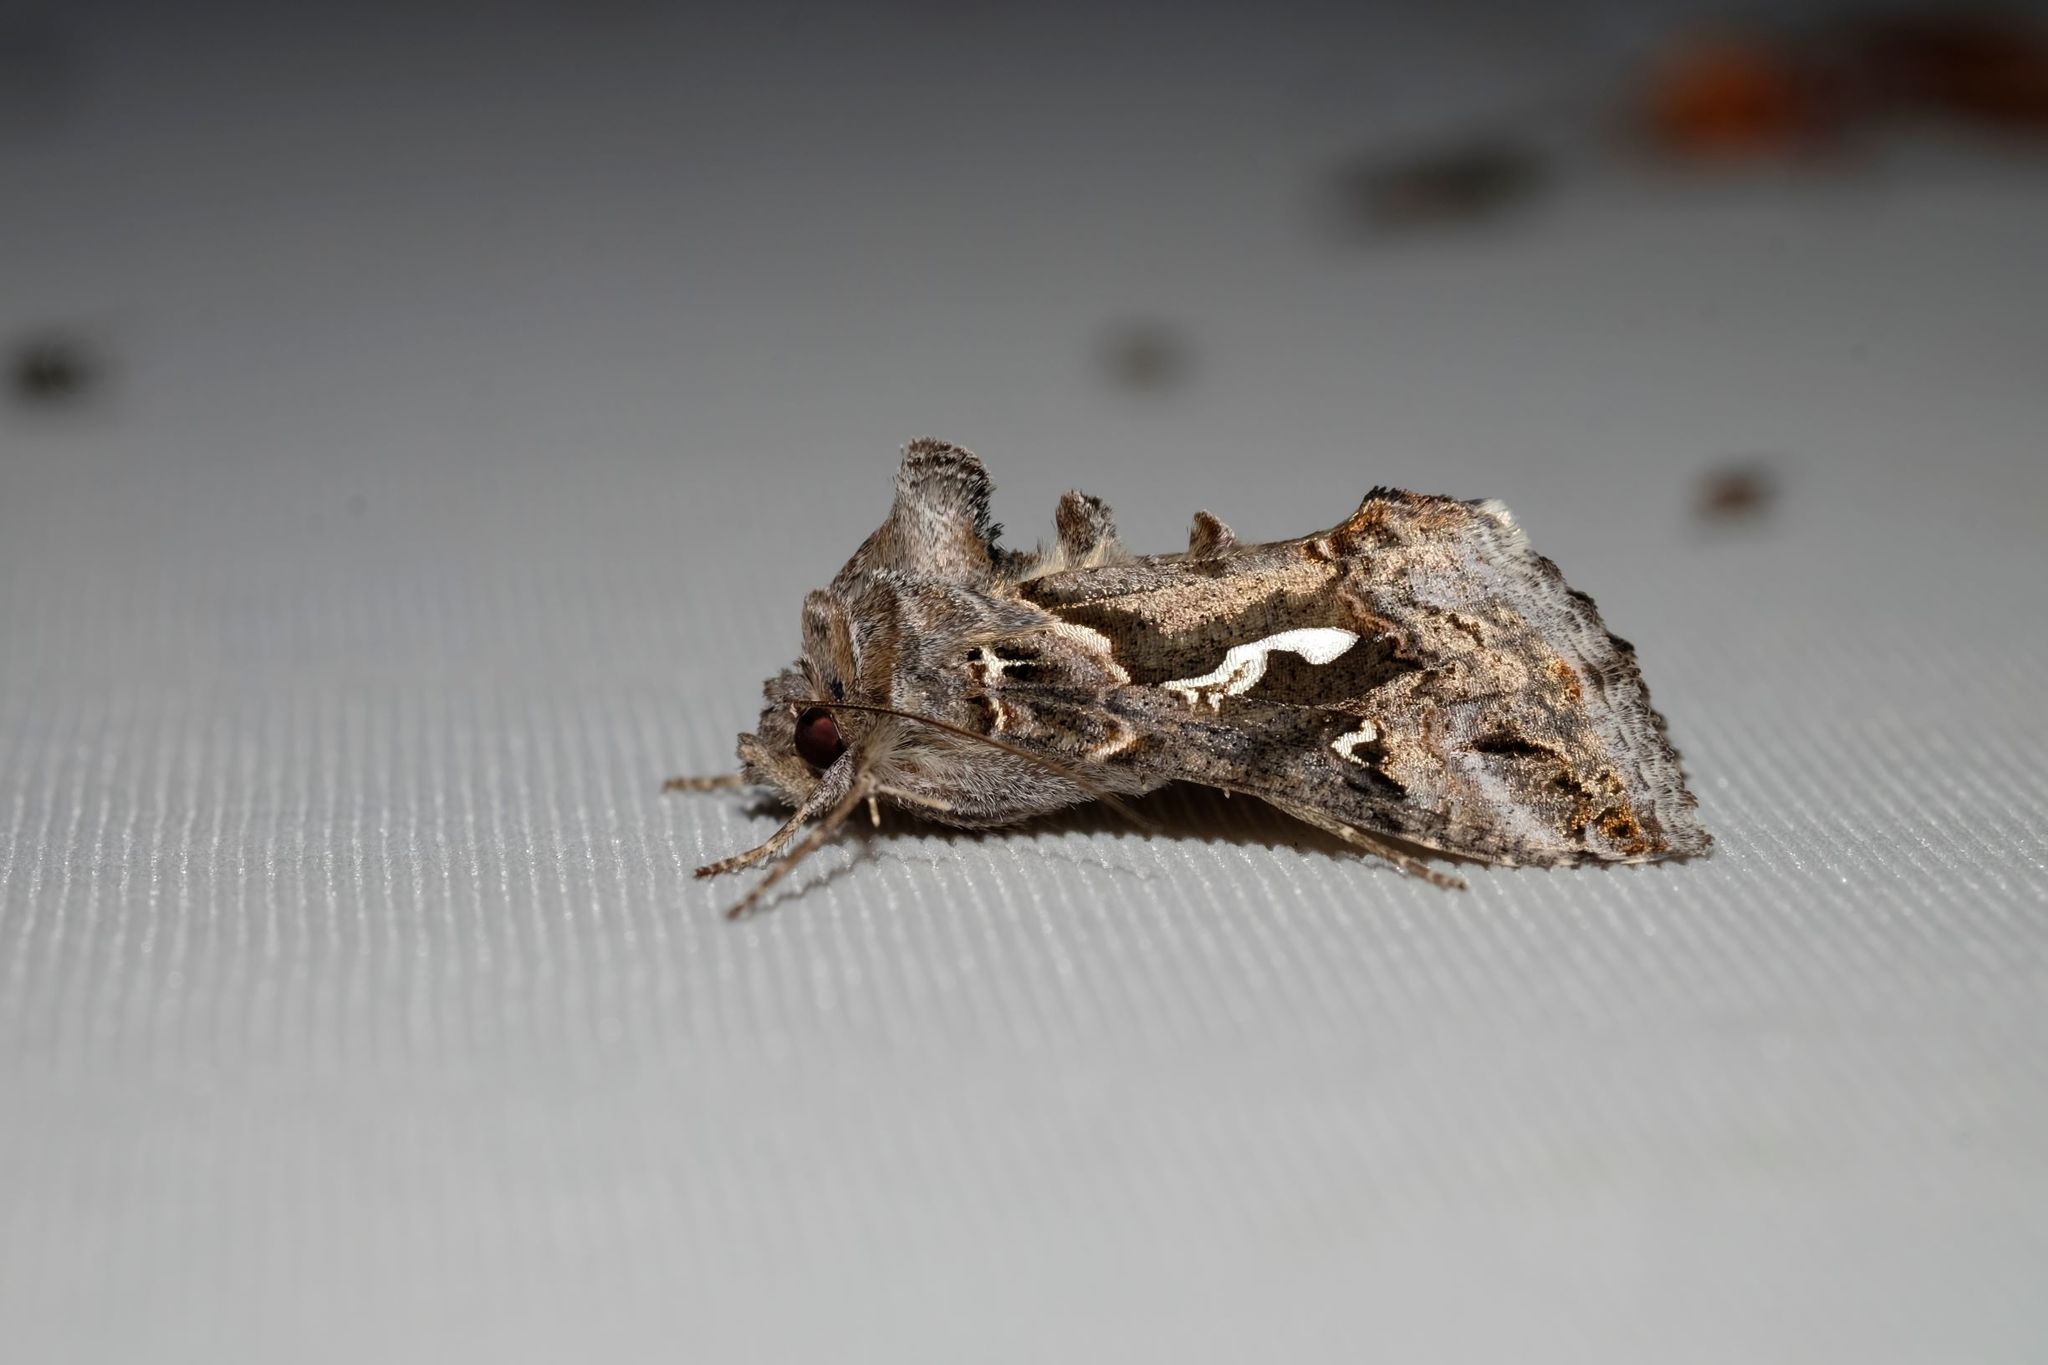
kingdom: Animalia
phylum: Arthropoda
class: Insecta
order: Lepidoptera
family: Noctuidae
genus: Chrysodeixis
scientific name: Chrysodeixis argentifera
